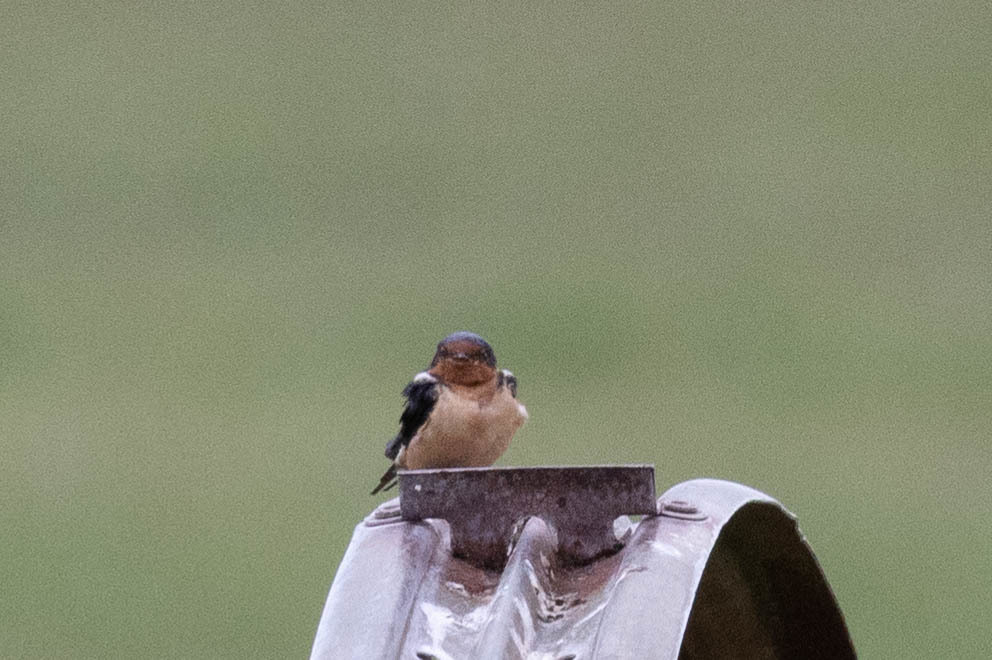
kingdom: Animalia
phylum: Chordata
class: Aves
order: Passeriformes
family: Hirundinidae
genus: Hirundo
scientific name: Hirundo rustica
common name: Barn swallow
